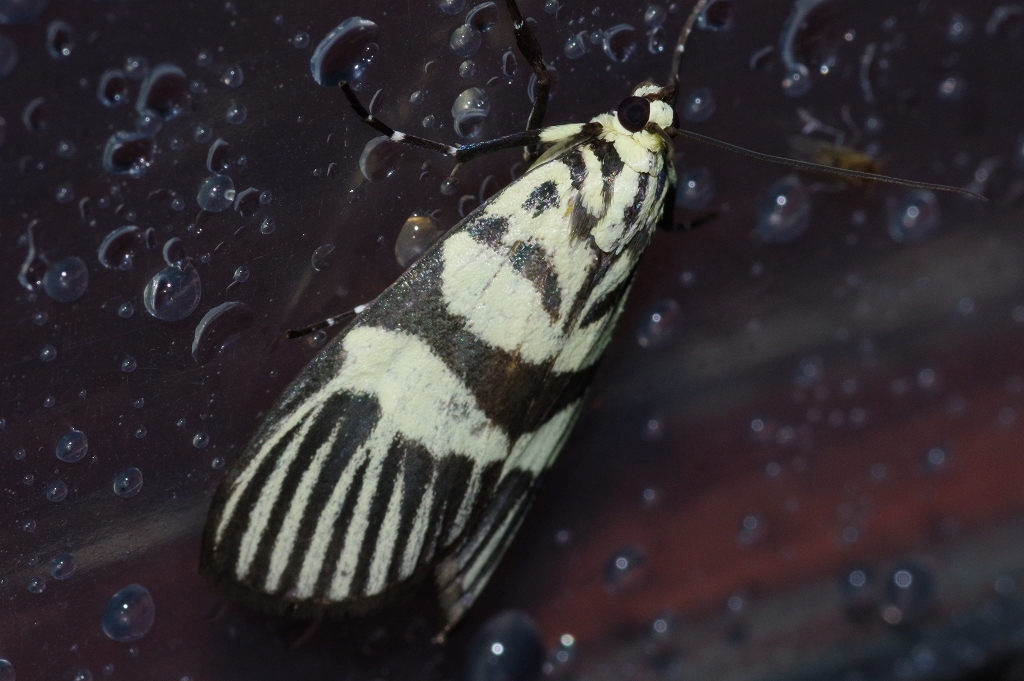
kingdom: Animalia
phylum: Arthropoda
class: Insecta
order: Lepidoptera
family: Crambidae
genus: Heortia
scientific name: Heortia vitessoides
